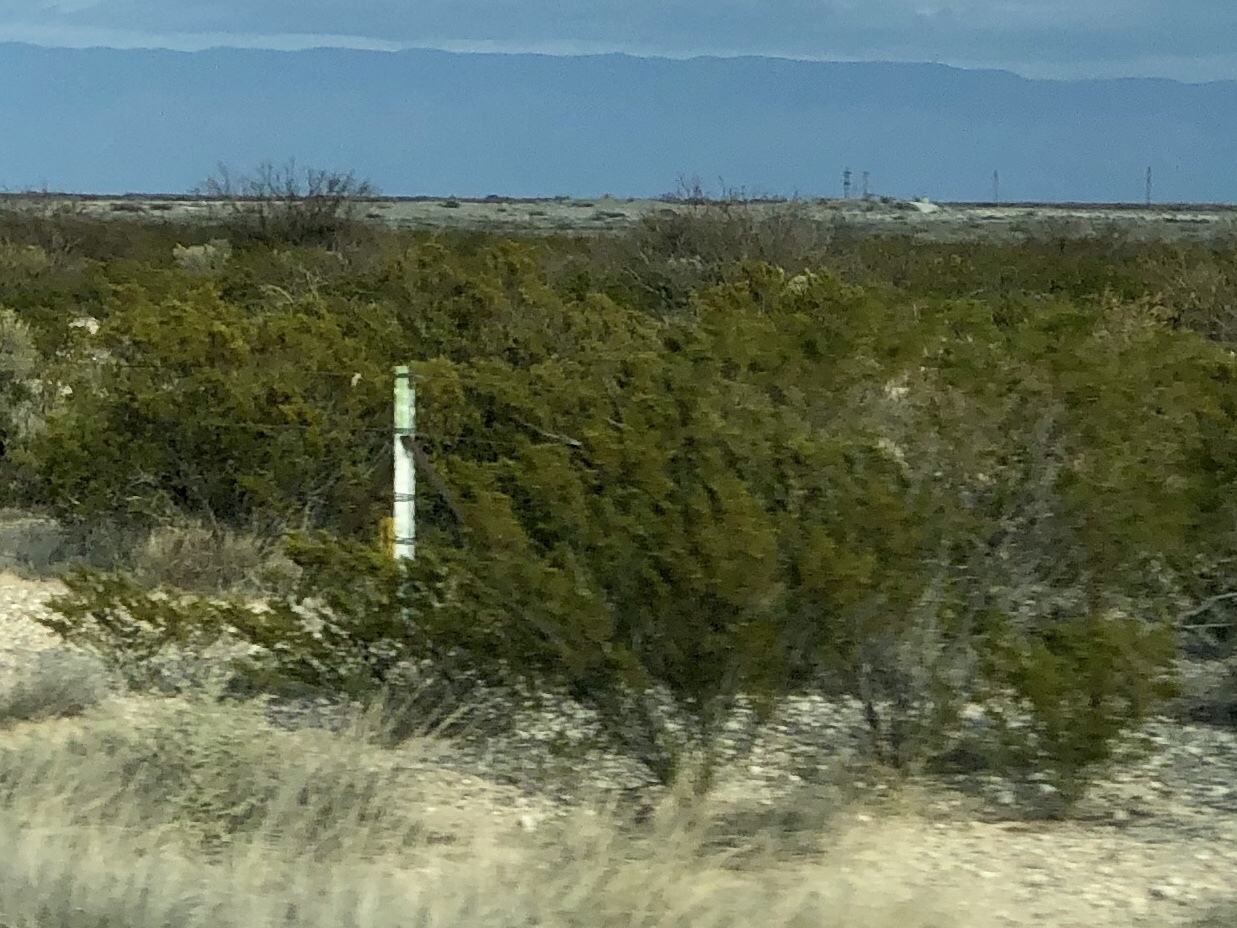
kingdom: Plantae
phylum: Tracheophyta
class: Magnoliopsida
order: Zygophyllales
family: Zygophyllaceae
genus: Larrea
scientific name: Larrea tridentata
